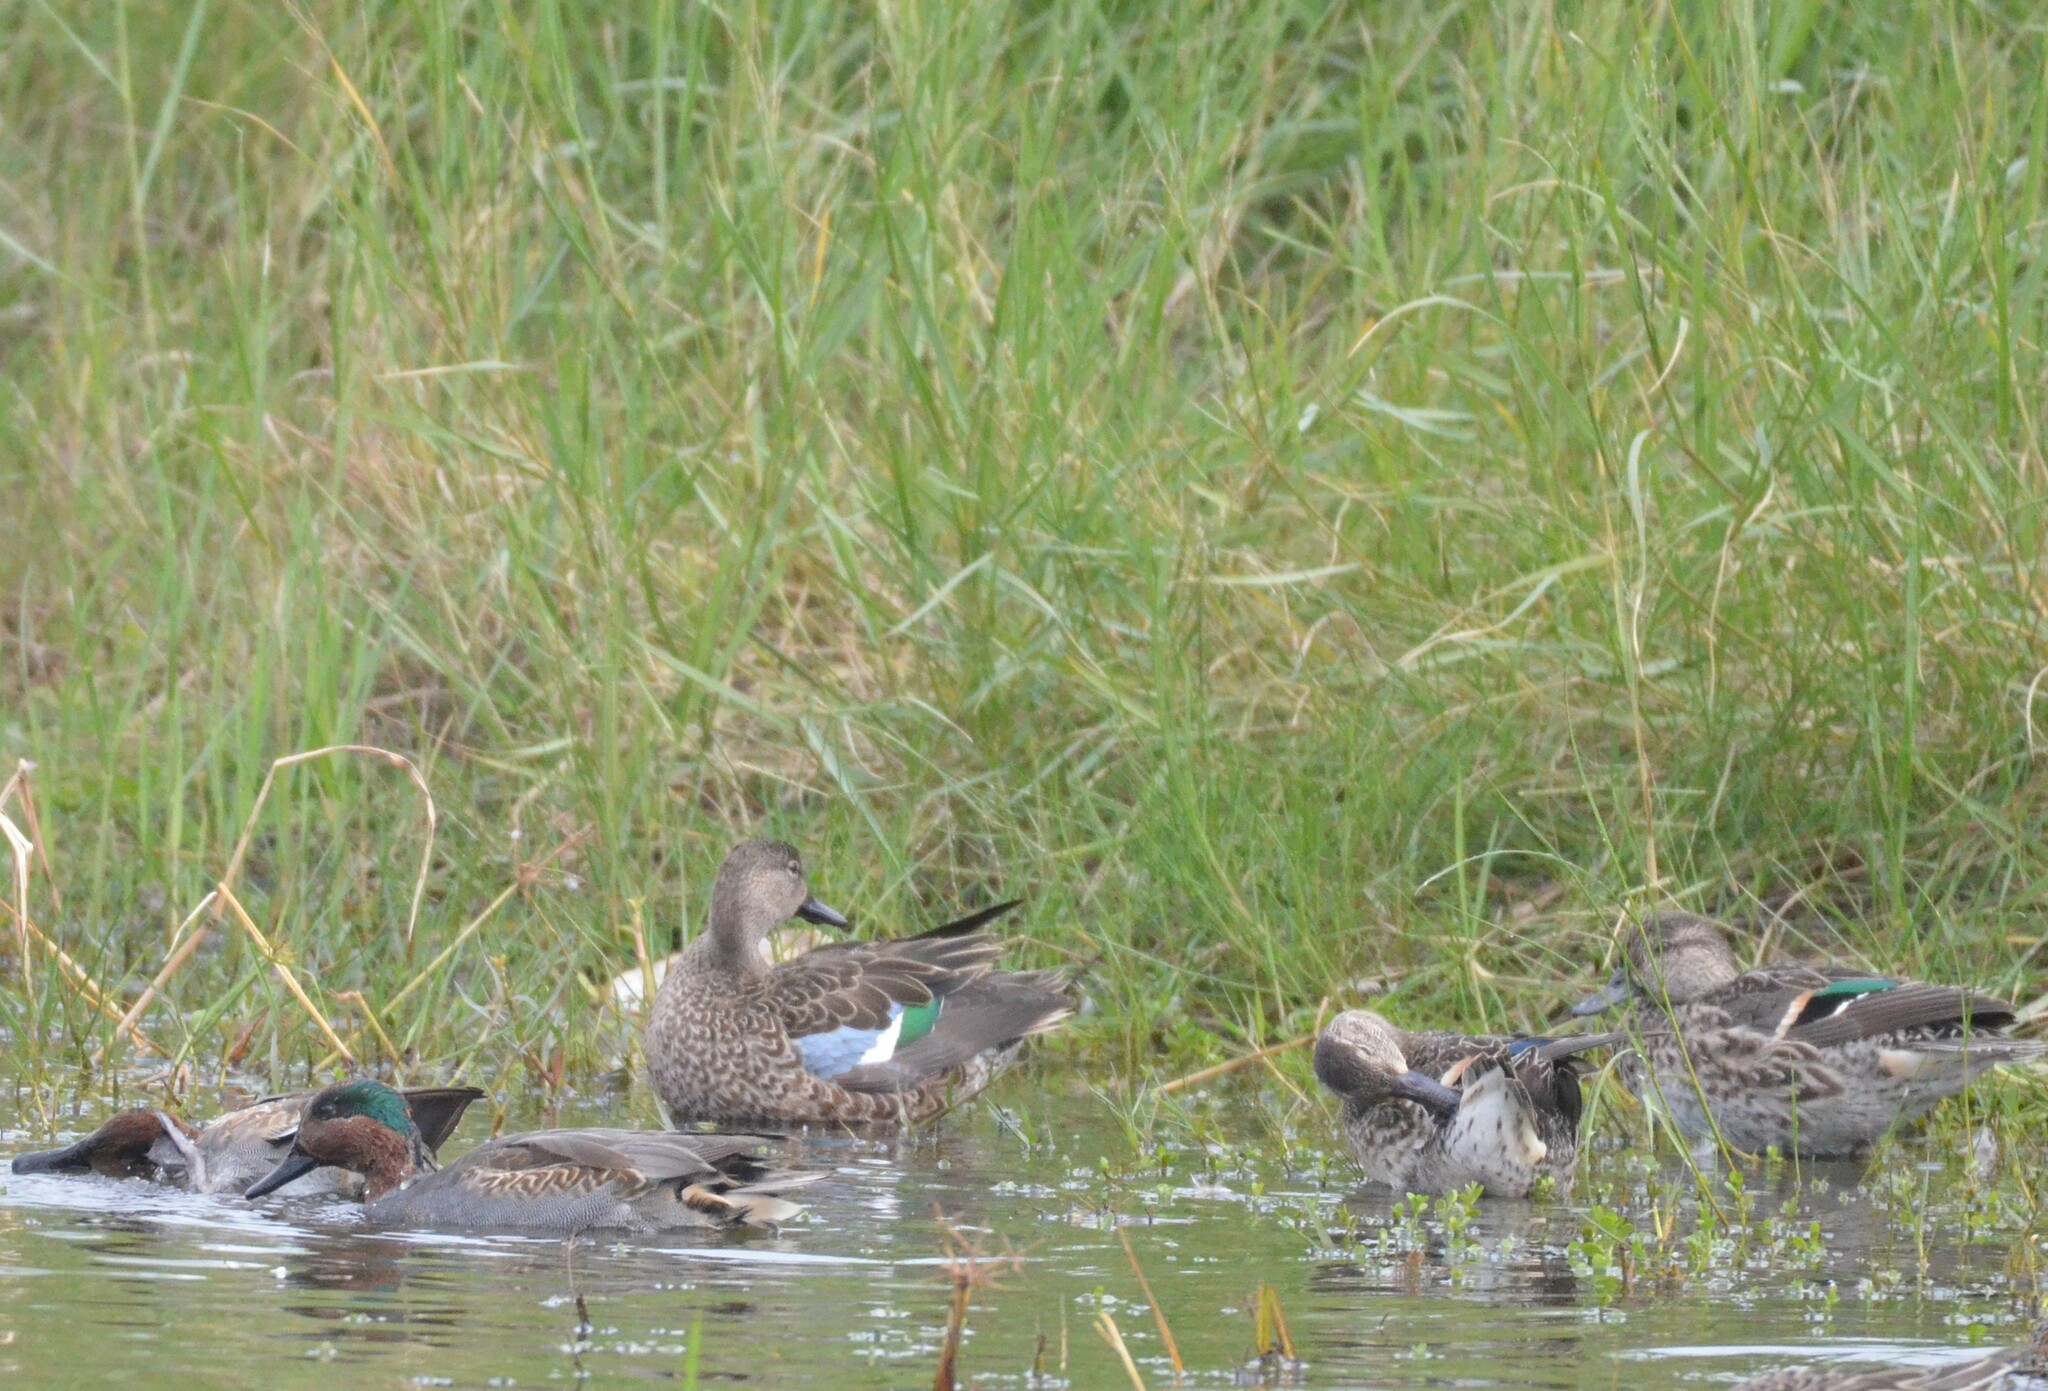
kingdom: Animalia
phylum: Chordata
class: Aves
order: Anseriformes
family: Anatidae
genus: Spatula
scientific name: Spatula discors
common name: Blue-winged teal
